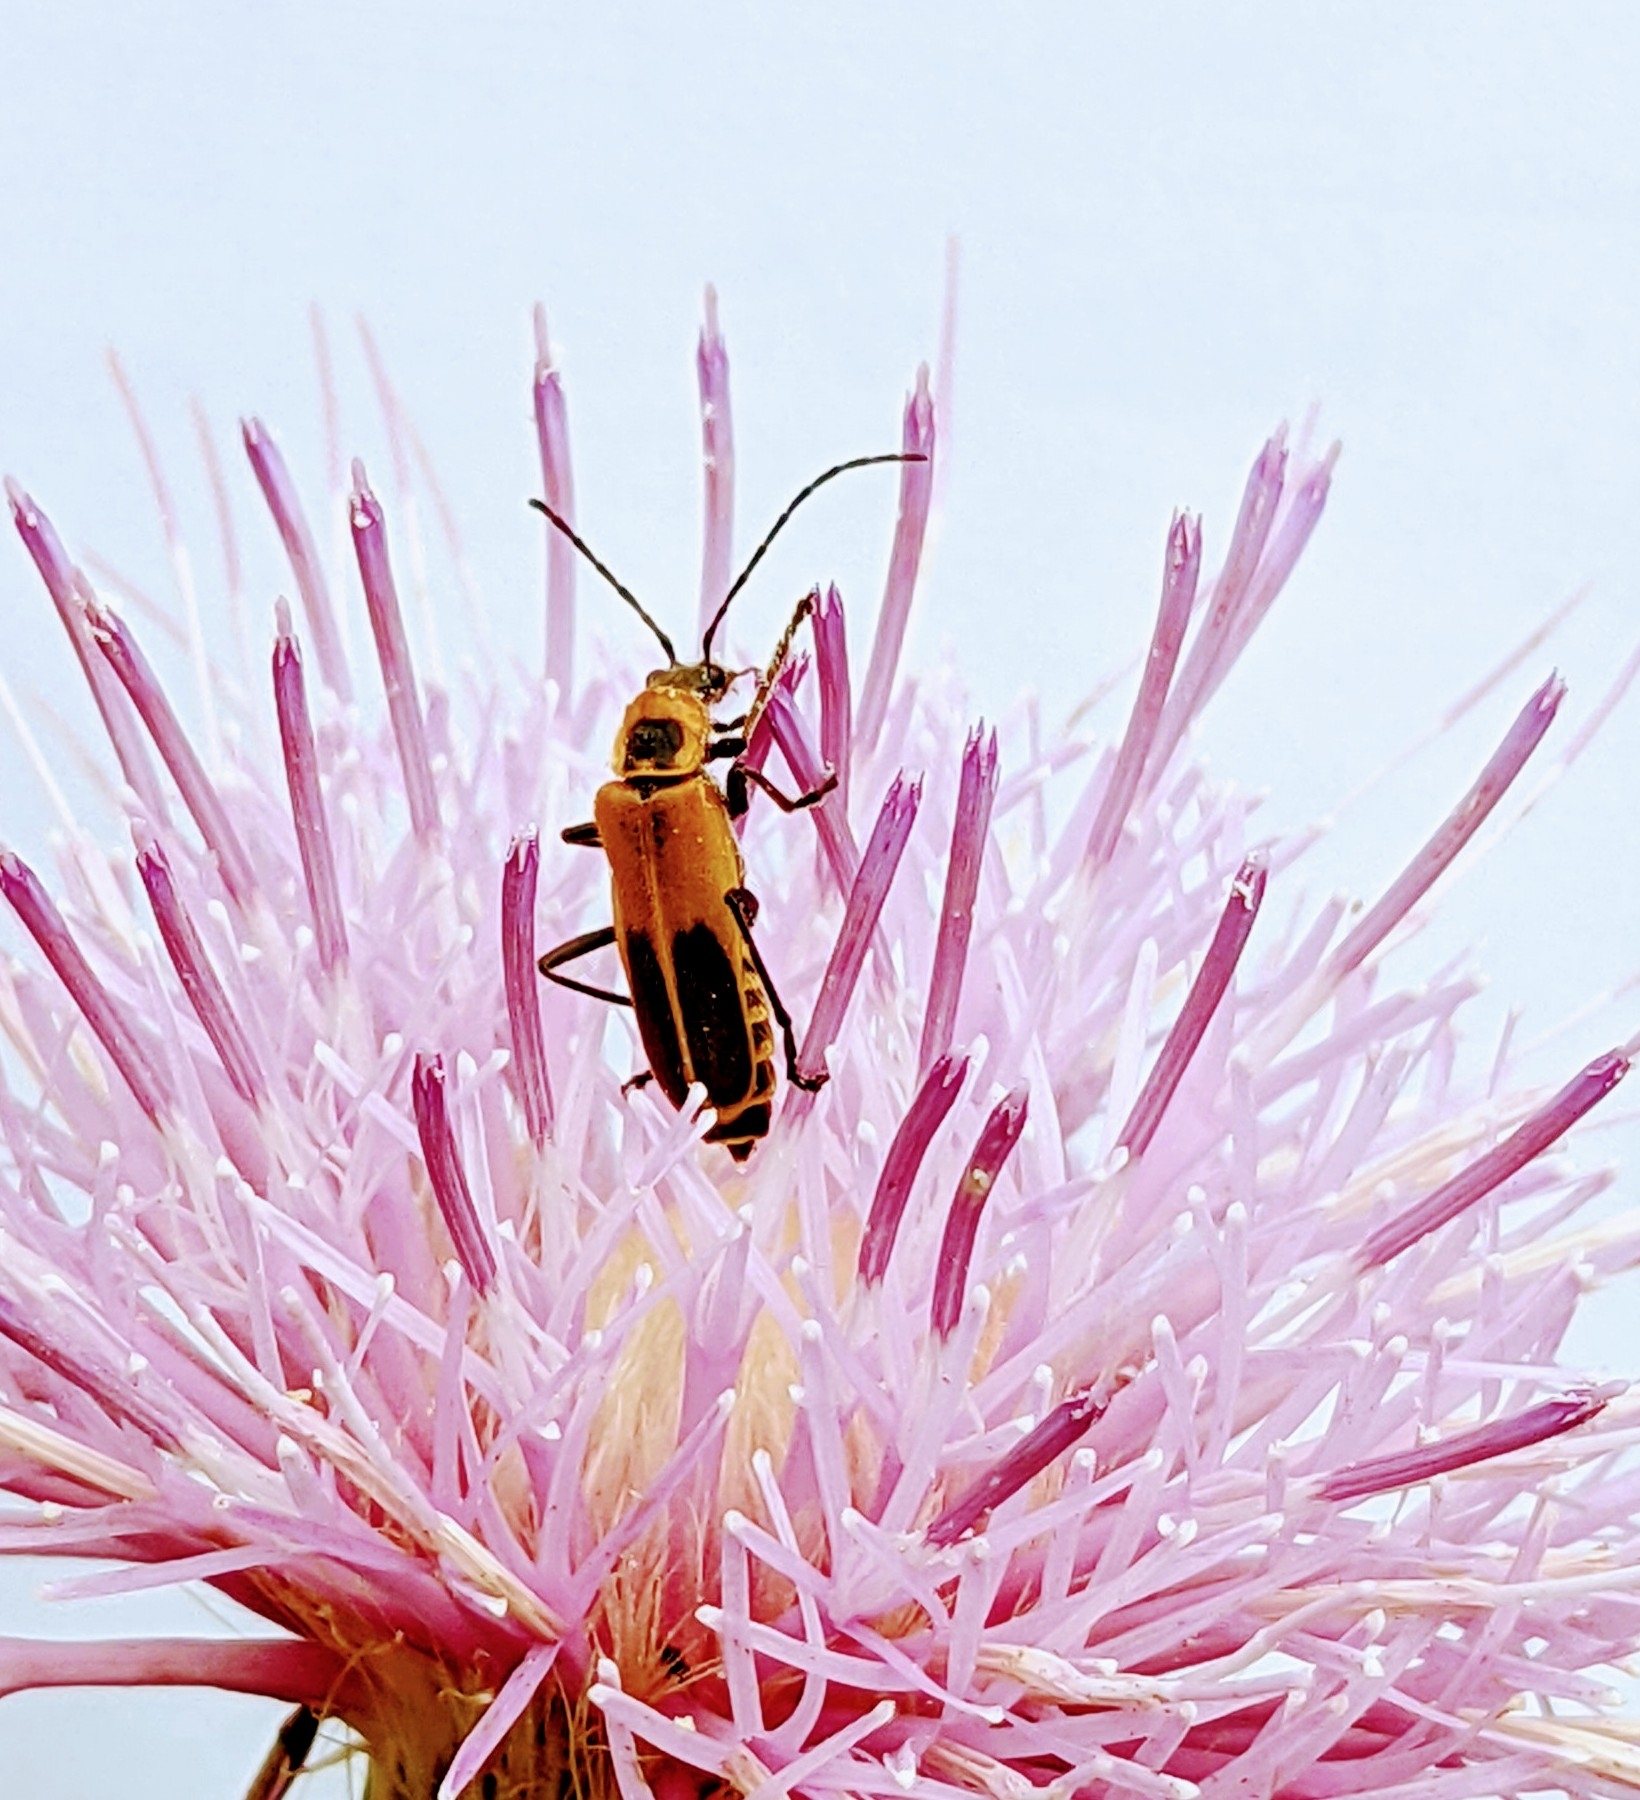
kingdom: Animalia
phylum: Arthropoda
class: Insecta
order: Coleoptera
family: Cantharidae
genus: Chauliognathus
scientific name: Chauliognathus pensylvanicus
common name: Goldenrod soldier beetle
